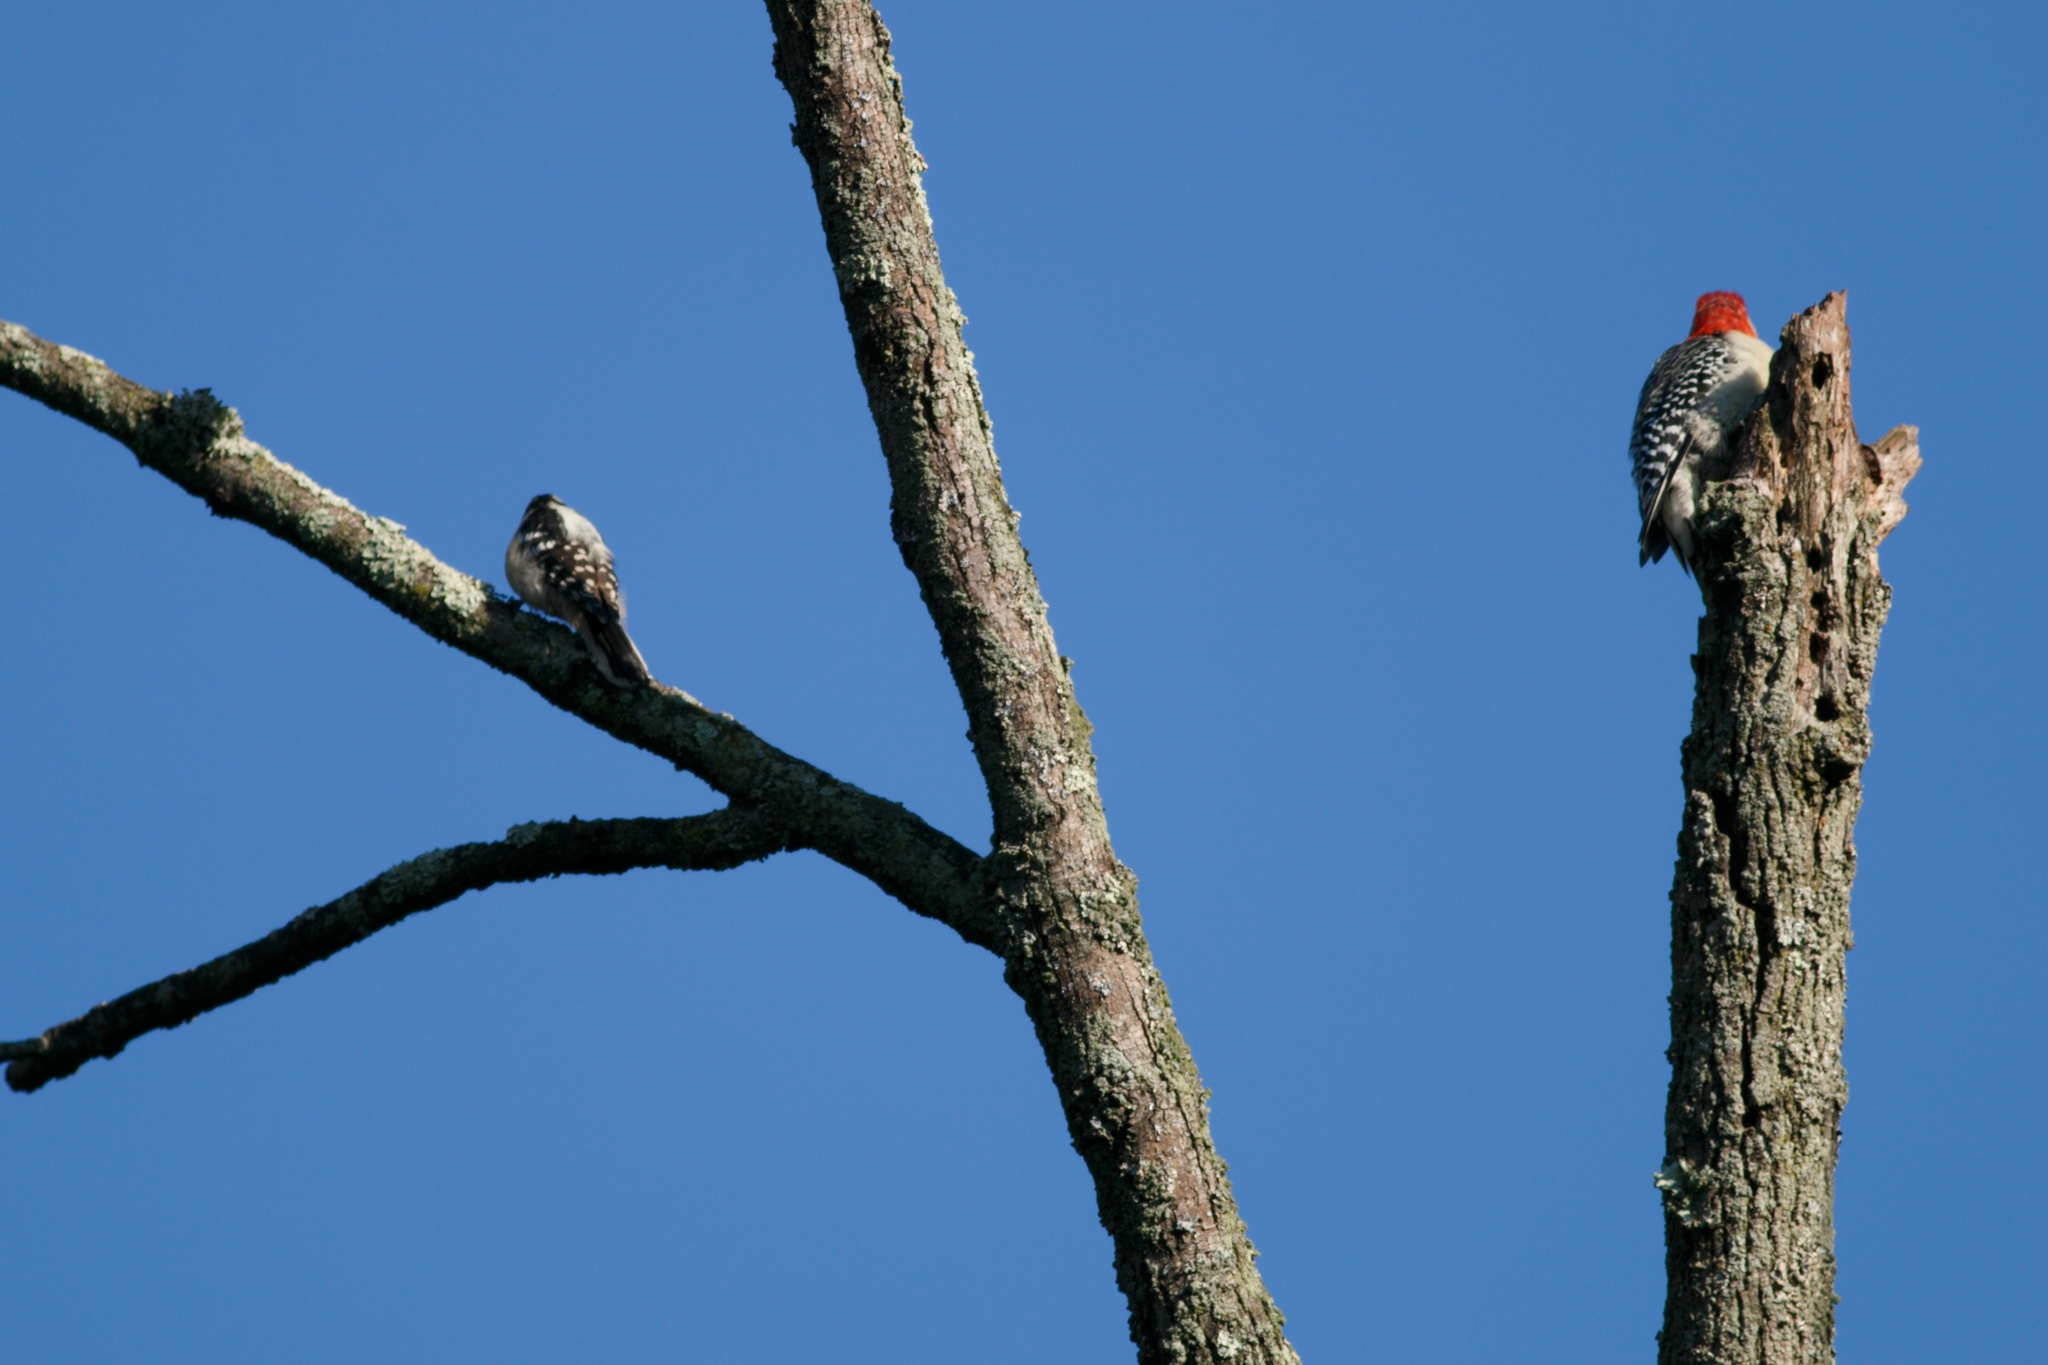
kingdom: Animalia
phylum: Chordata
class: Aves
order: Piciformes
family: Picidae
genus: Dryobates
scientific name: Dryobates pubescens
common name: Downy woodpecker
